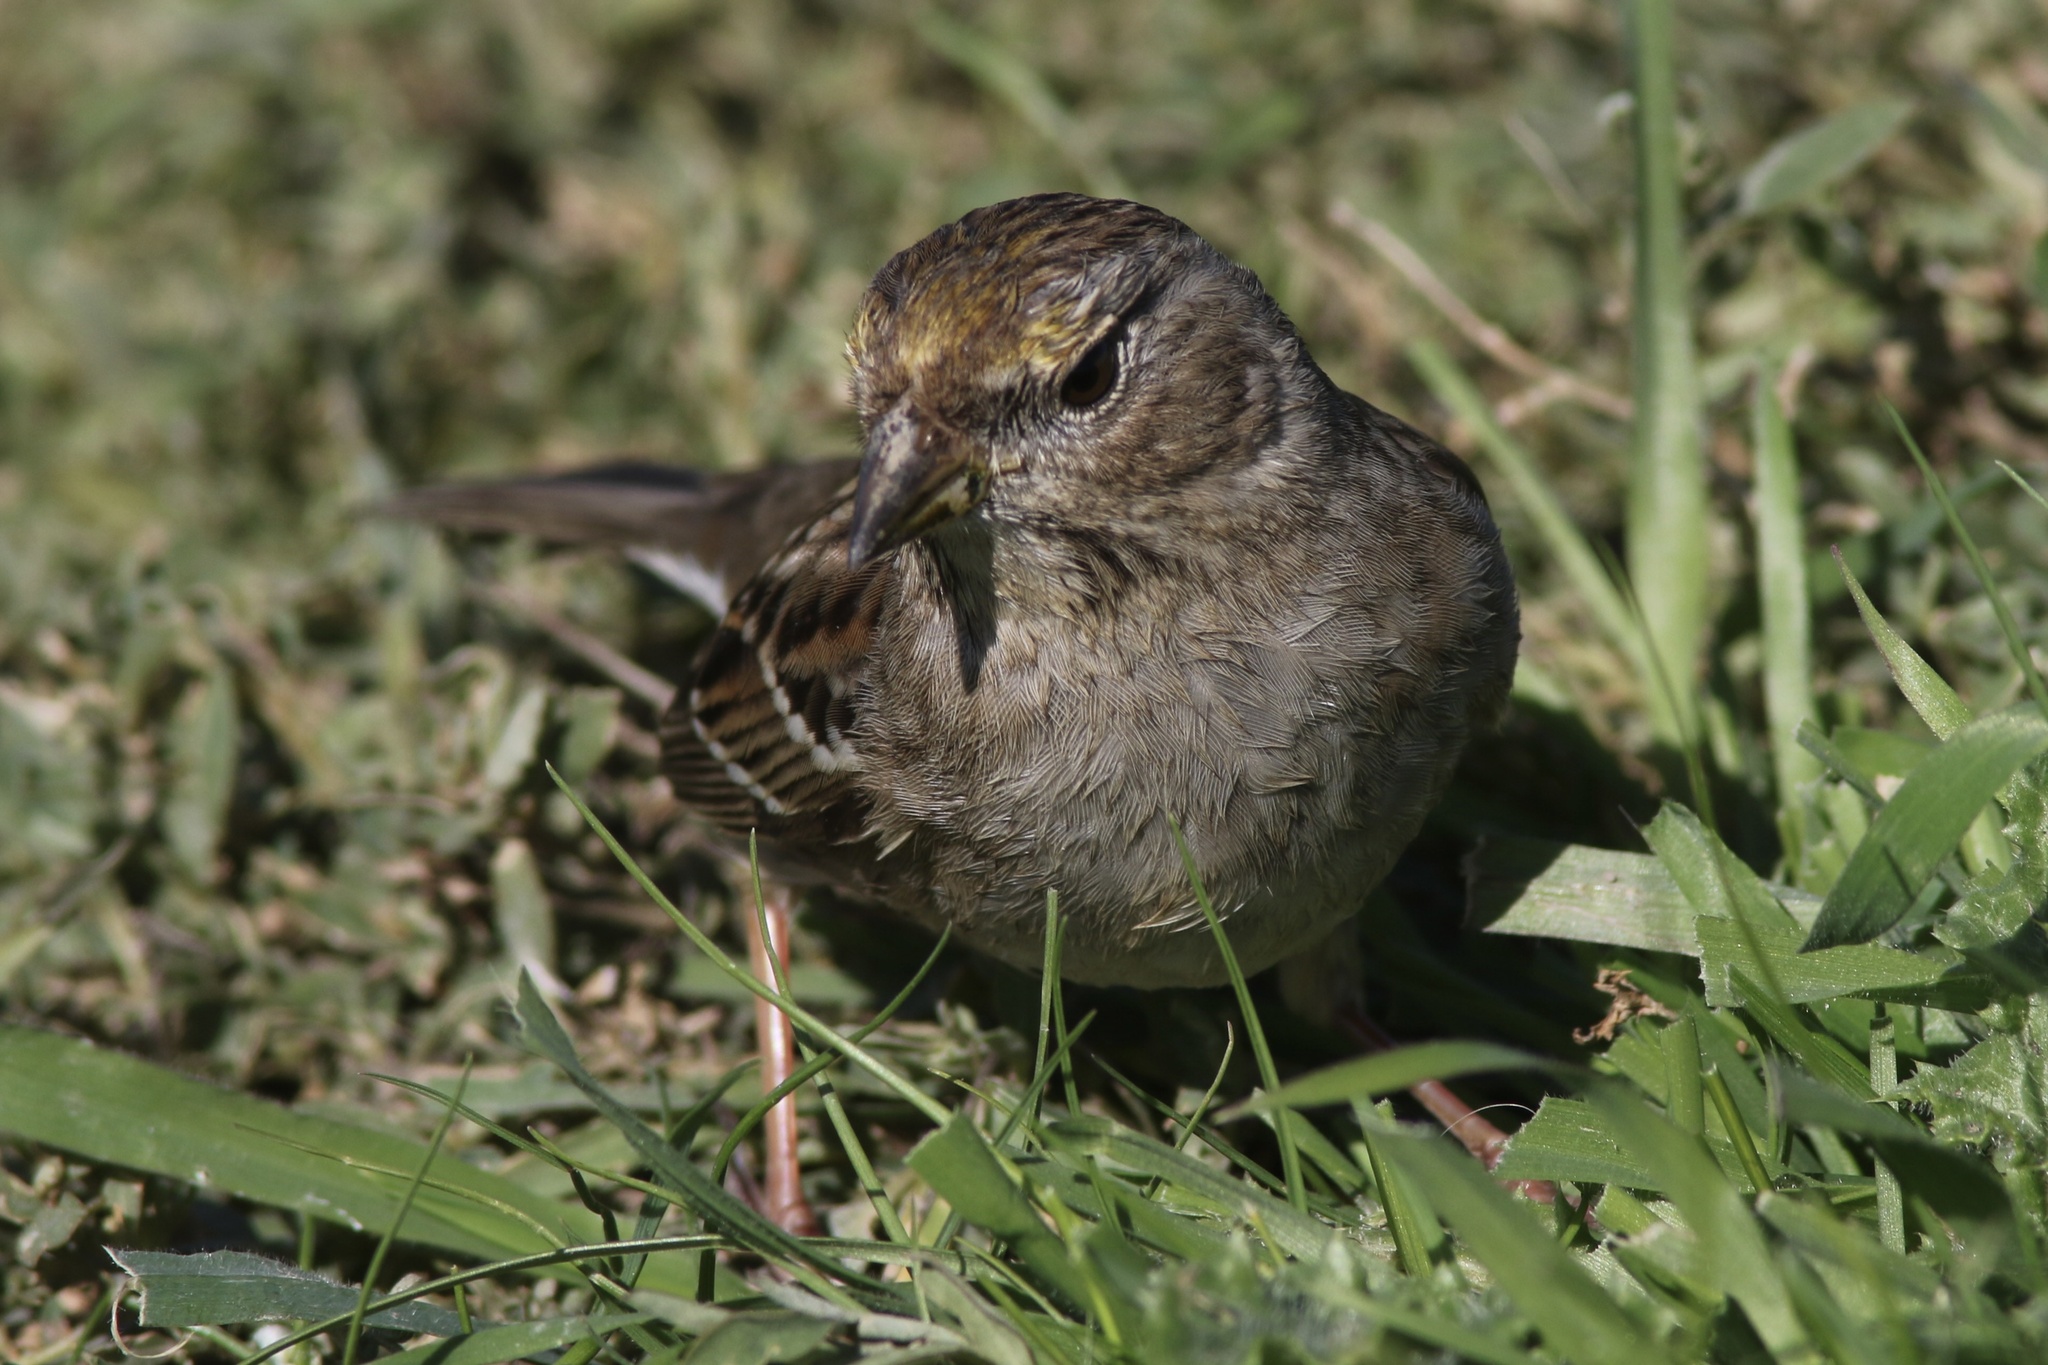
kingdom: Animalia
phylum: Chordata
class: Aves
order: Passeriformes
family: Passerellidae
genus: Zonotrichia
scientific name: Zonotrichia atricapilla
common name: Golden-crowned sparrow
